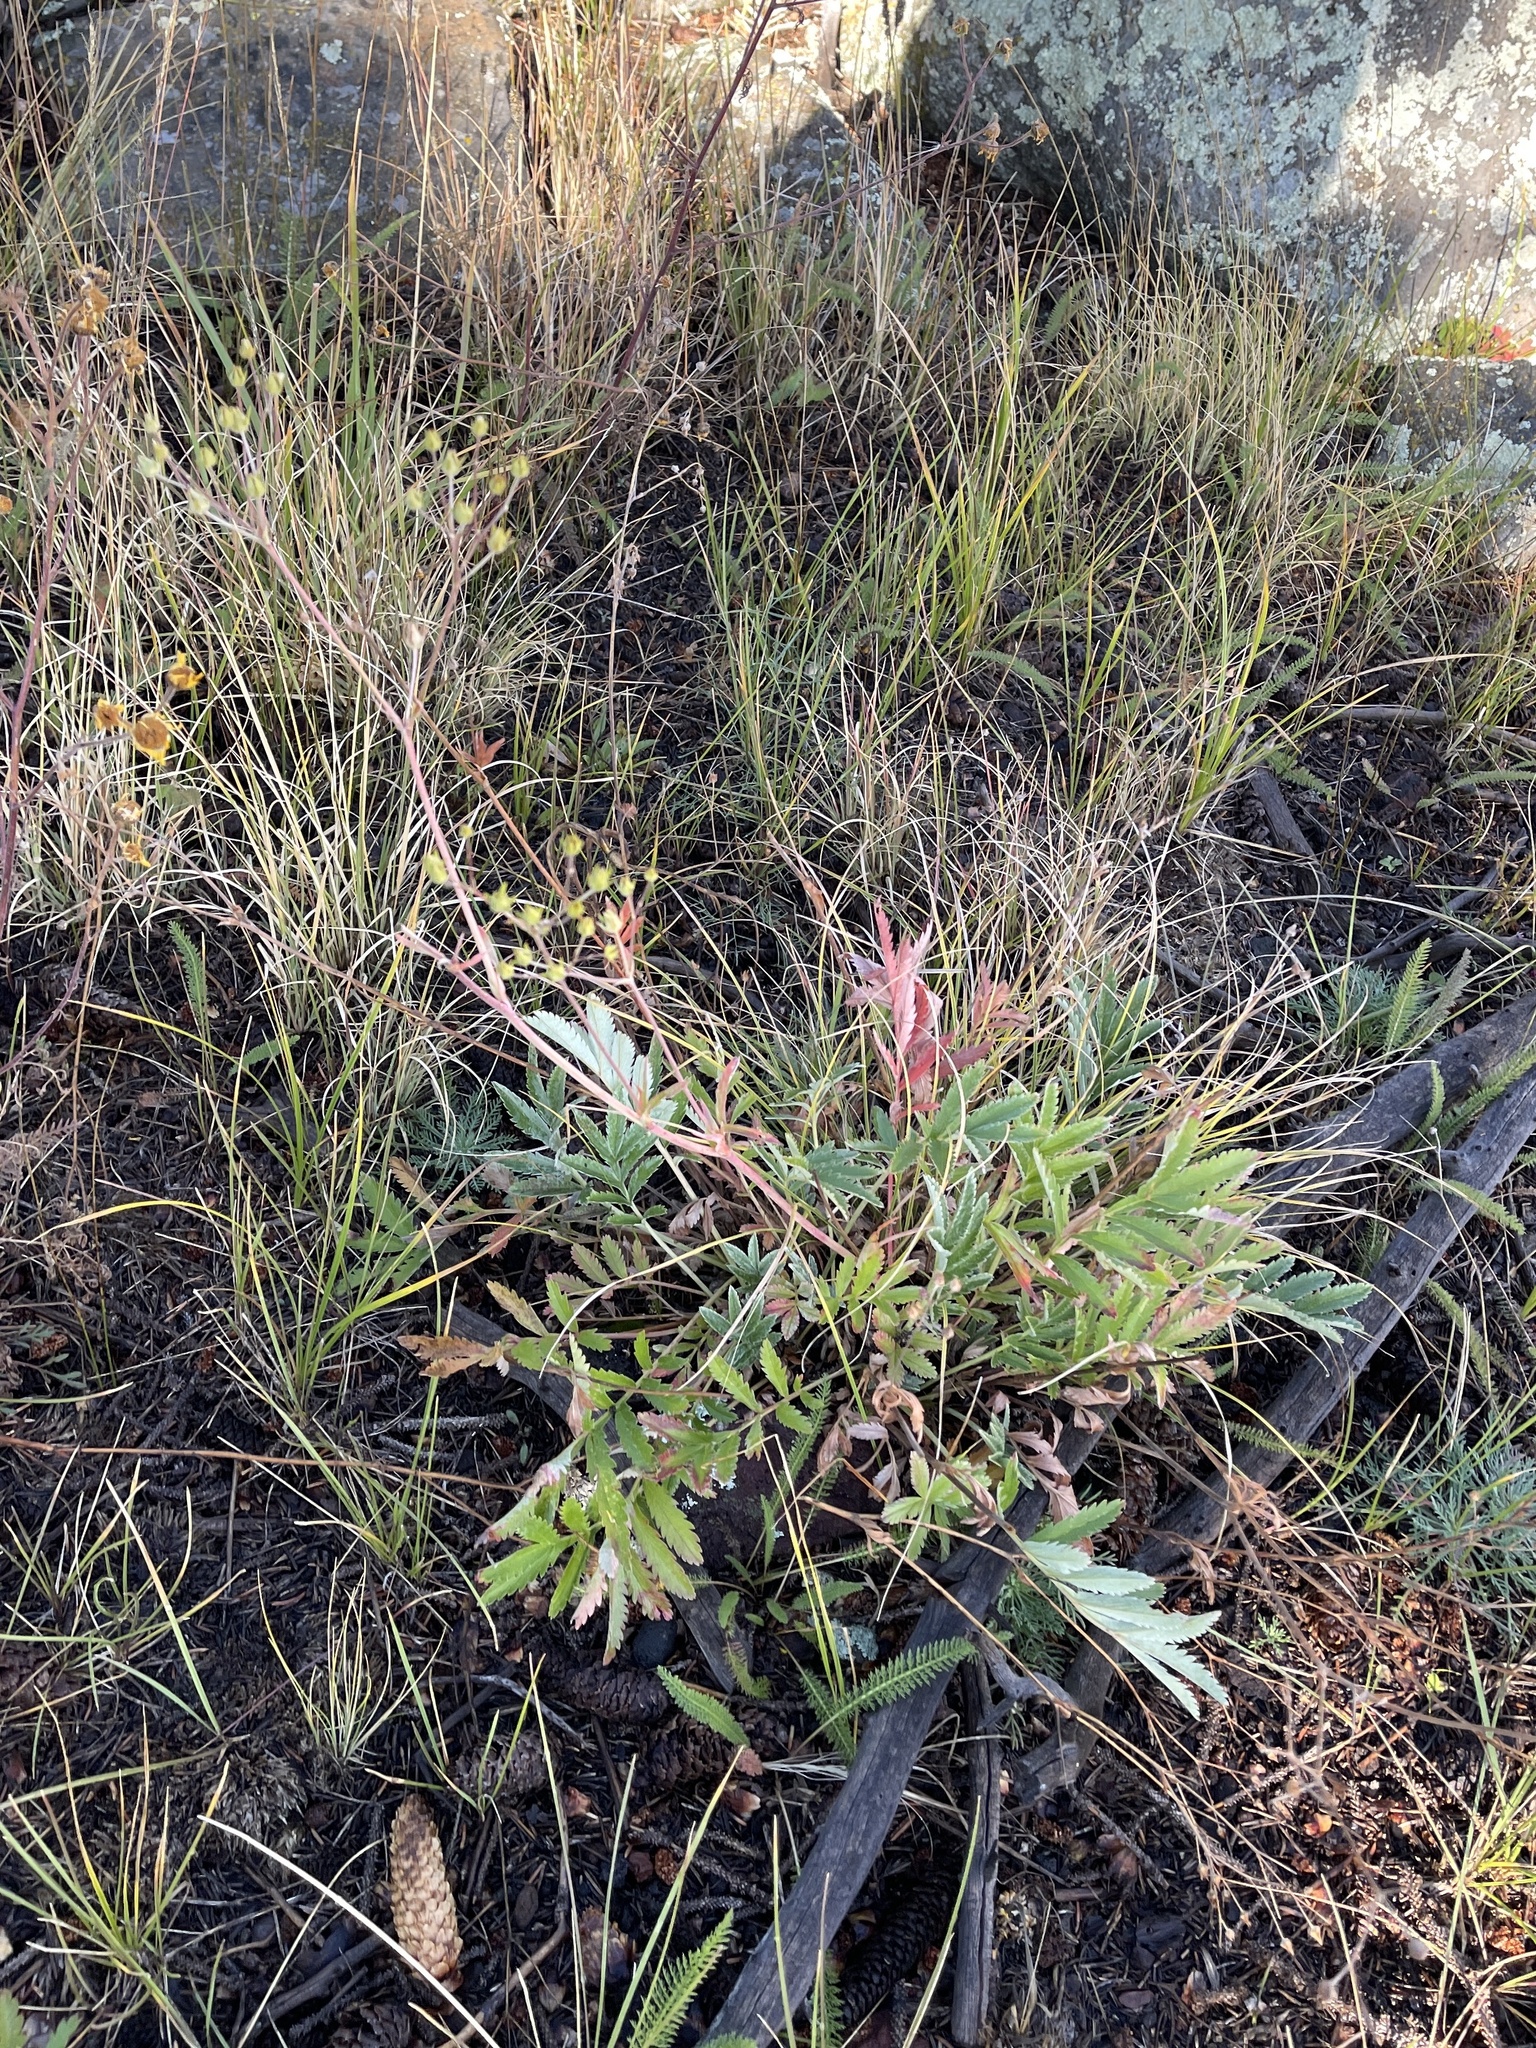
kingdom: Plantae
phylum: Tracheophyta
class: Magnoliopsida
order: Rosales
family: Rosaceae
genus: Potentilla
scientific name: Potentilla hippiana
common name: Woolly cinquefoil
